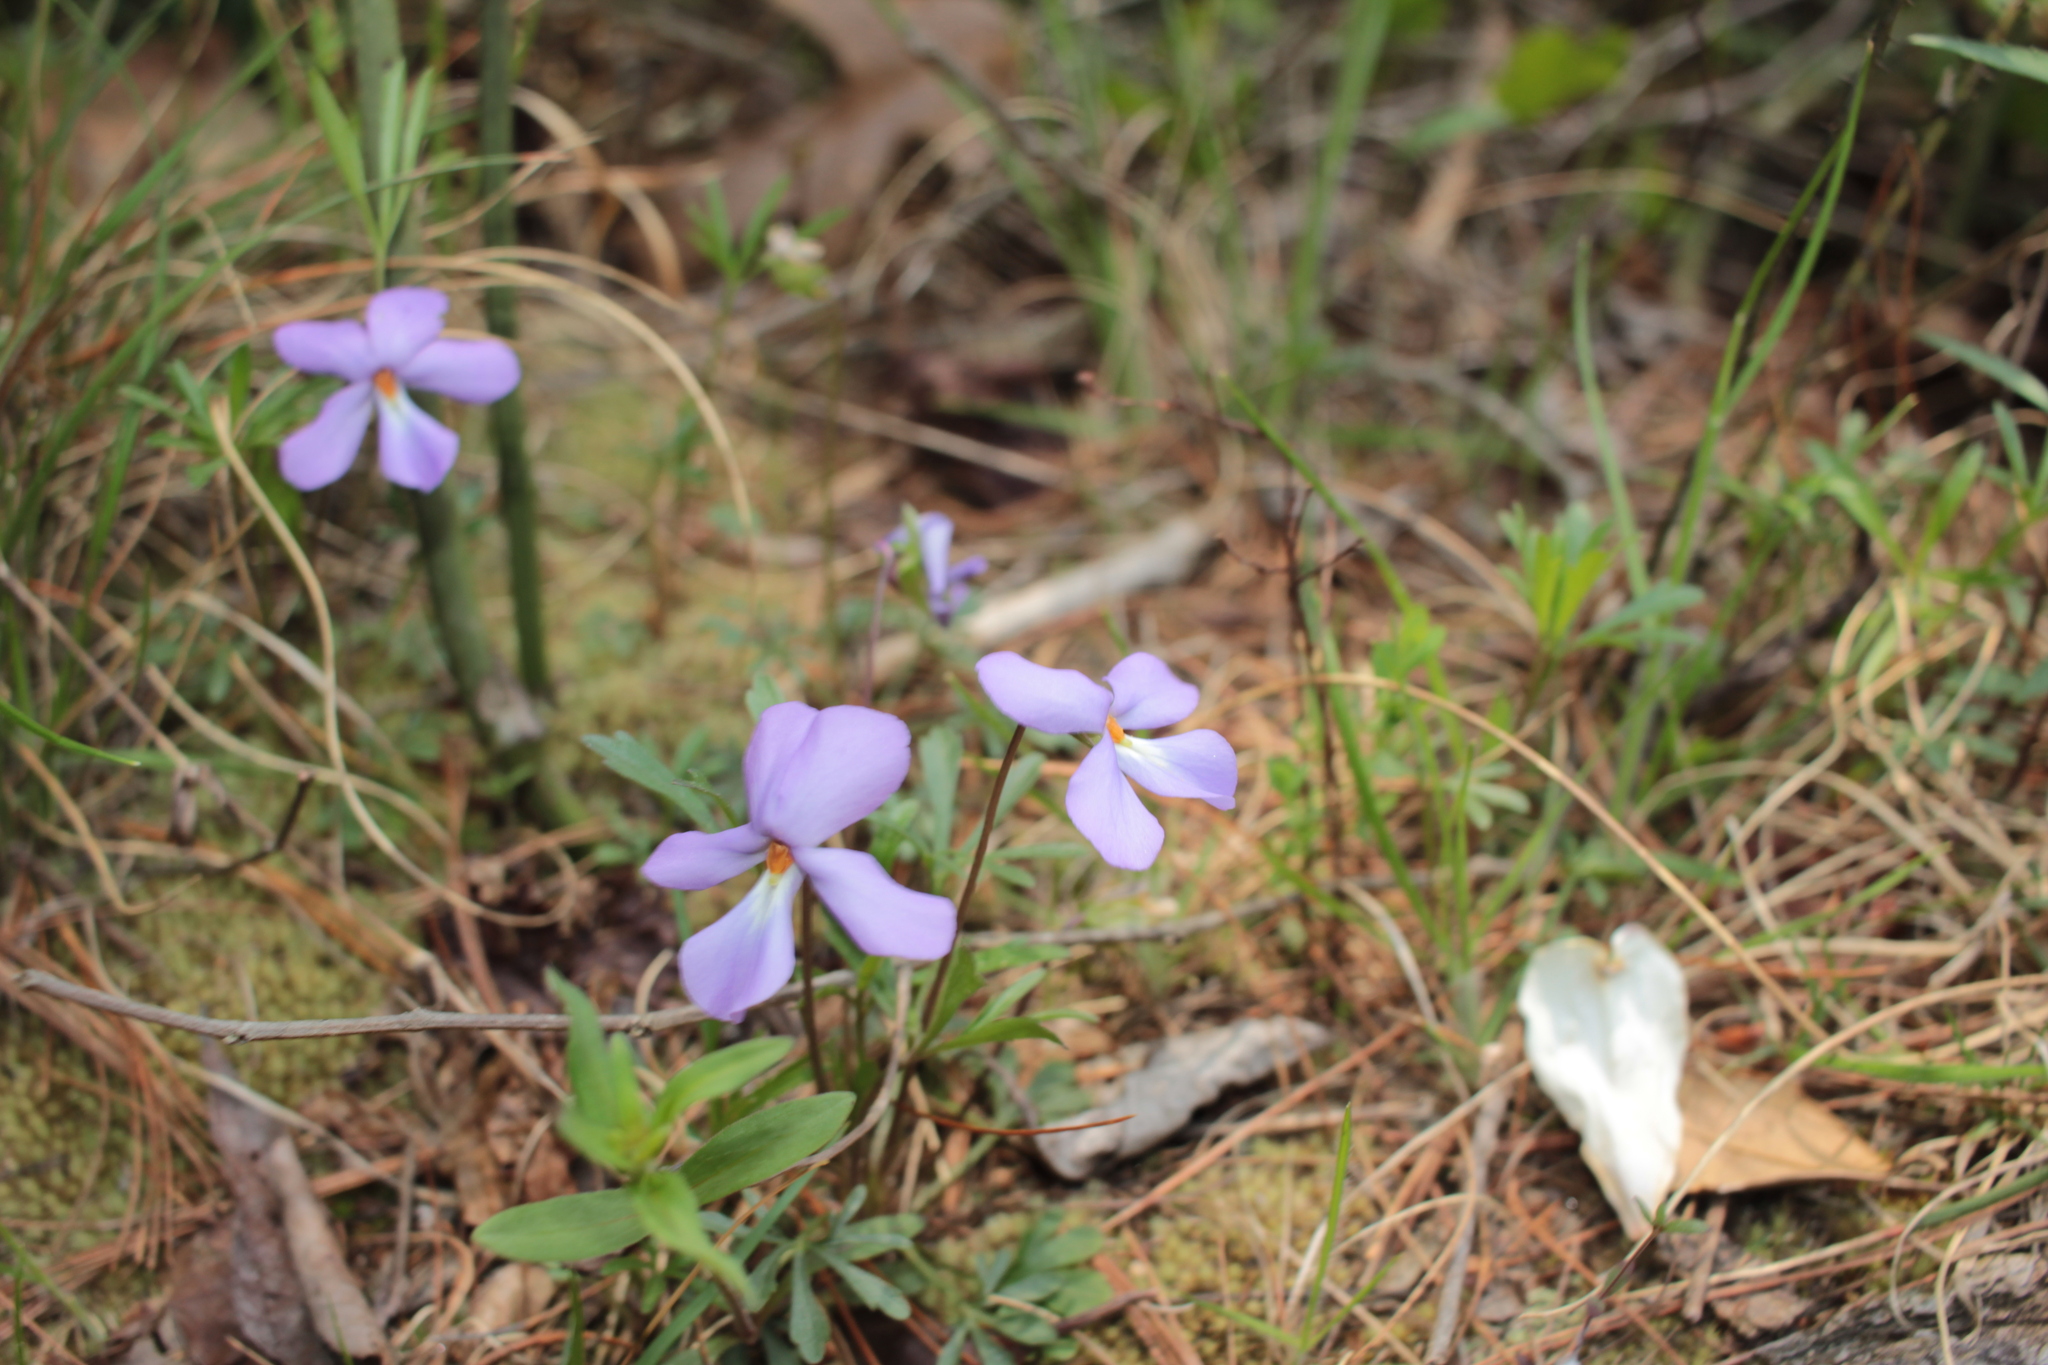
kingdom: Plantae
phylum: Tracheophyta
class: Magnoliopsida
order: Malpighiales
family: Violaceae
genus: Viola
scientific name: Viola pedata
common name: Pansy violet
